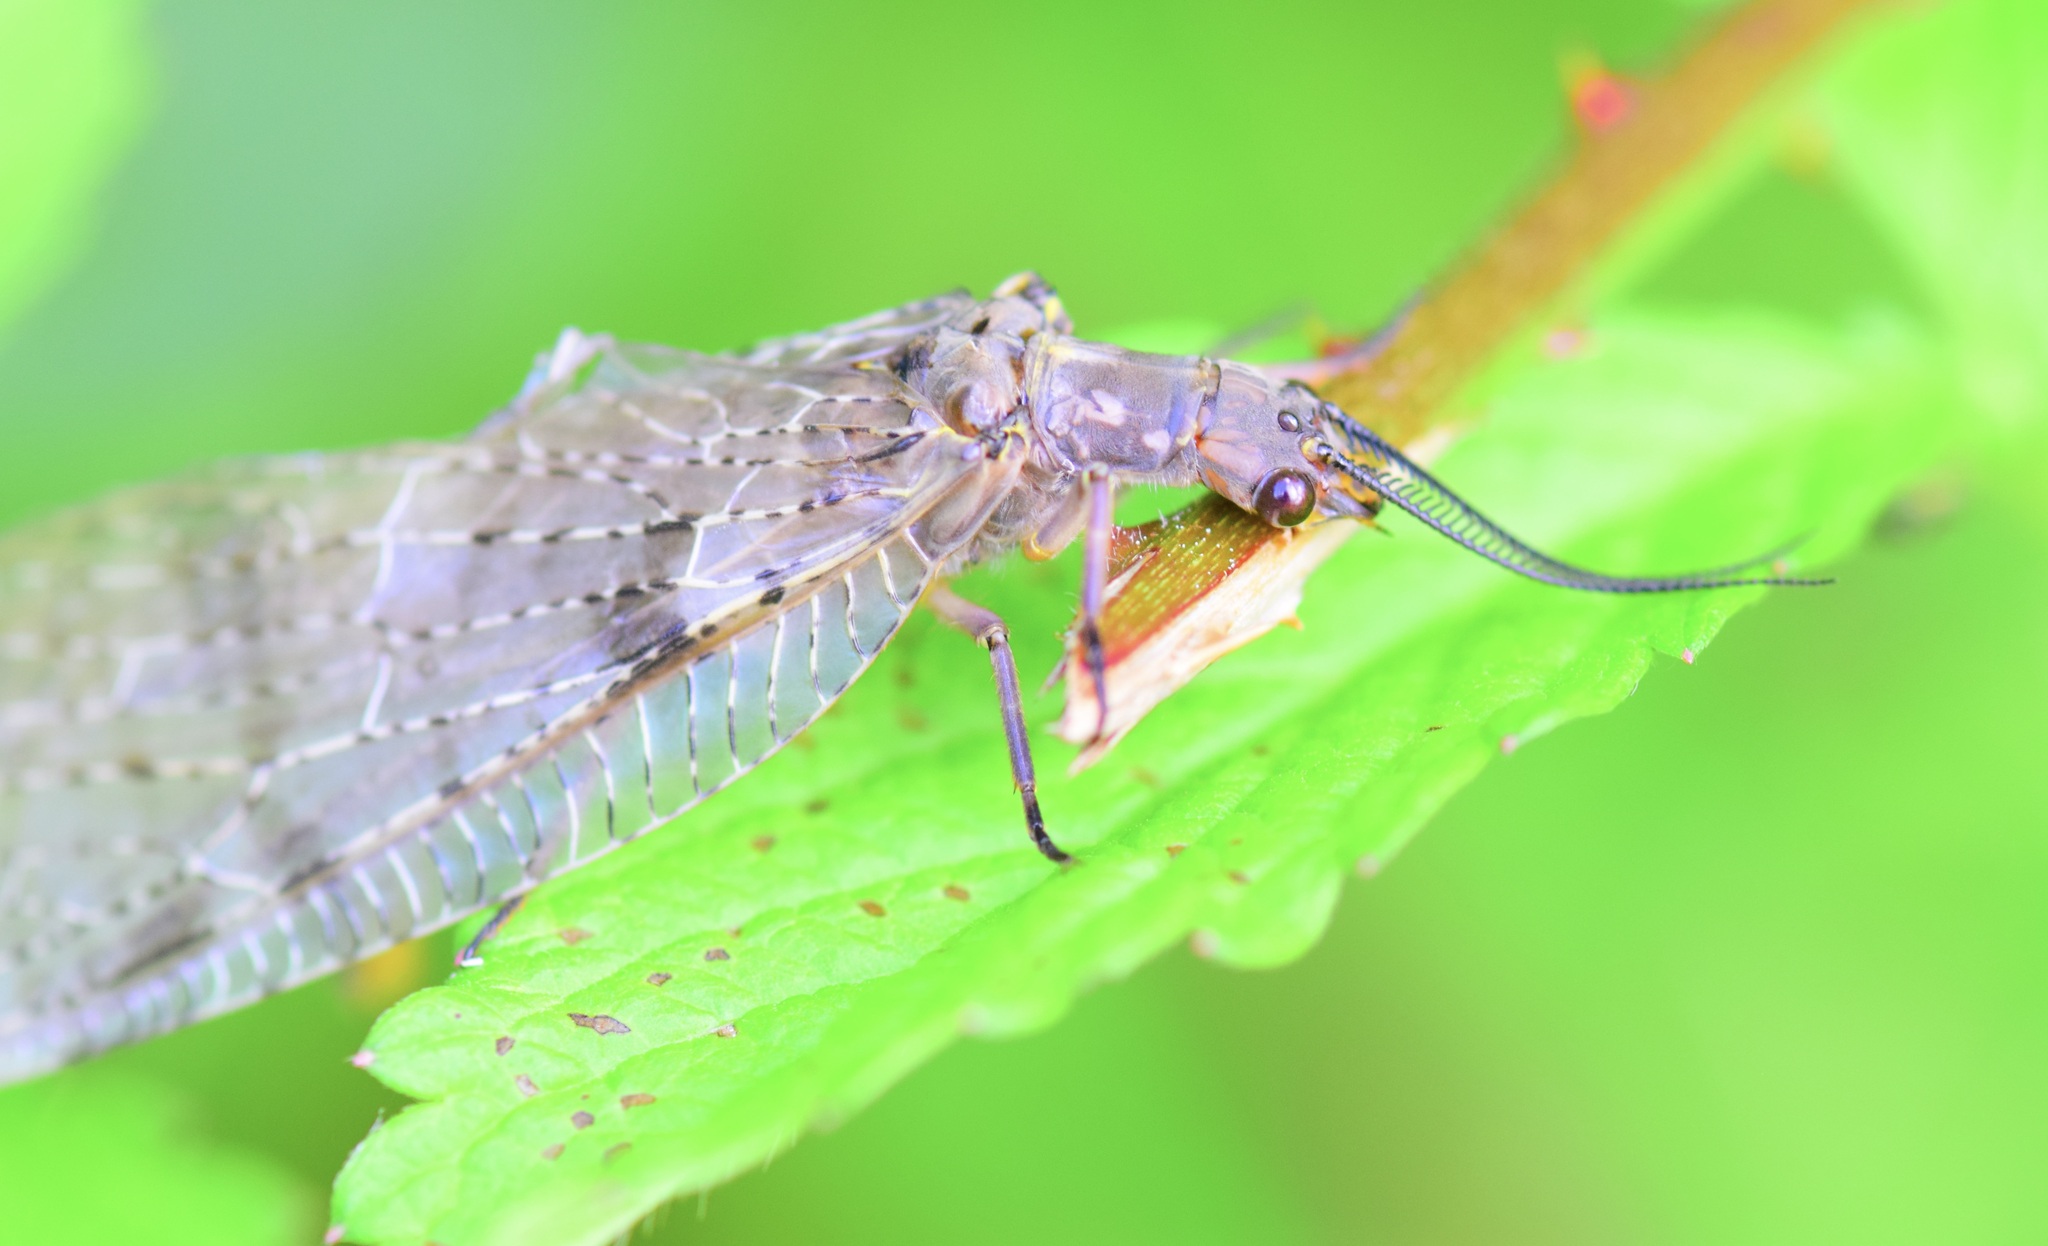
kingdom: Animalia
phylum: Arthropoda
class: Insecta
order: Megaloptera
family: Corydalidae
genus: Chauliodes
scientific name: Chauliodes pectinicornis
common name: Summer fishfly
